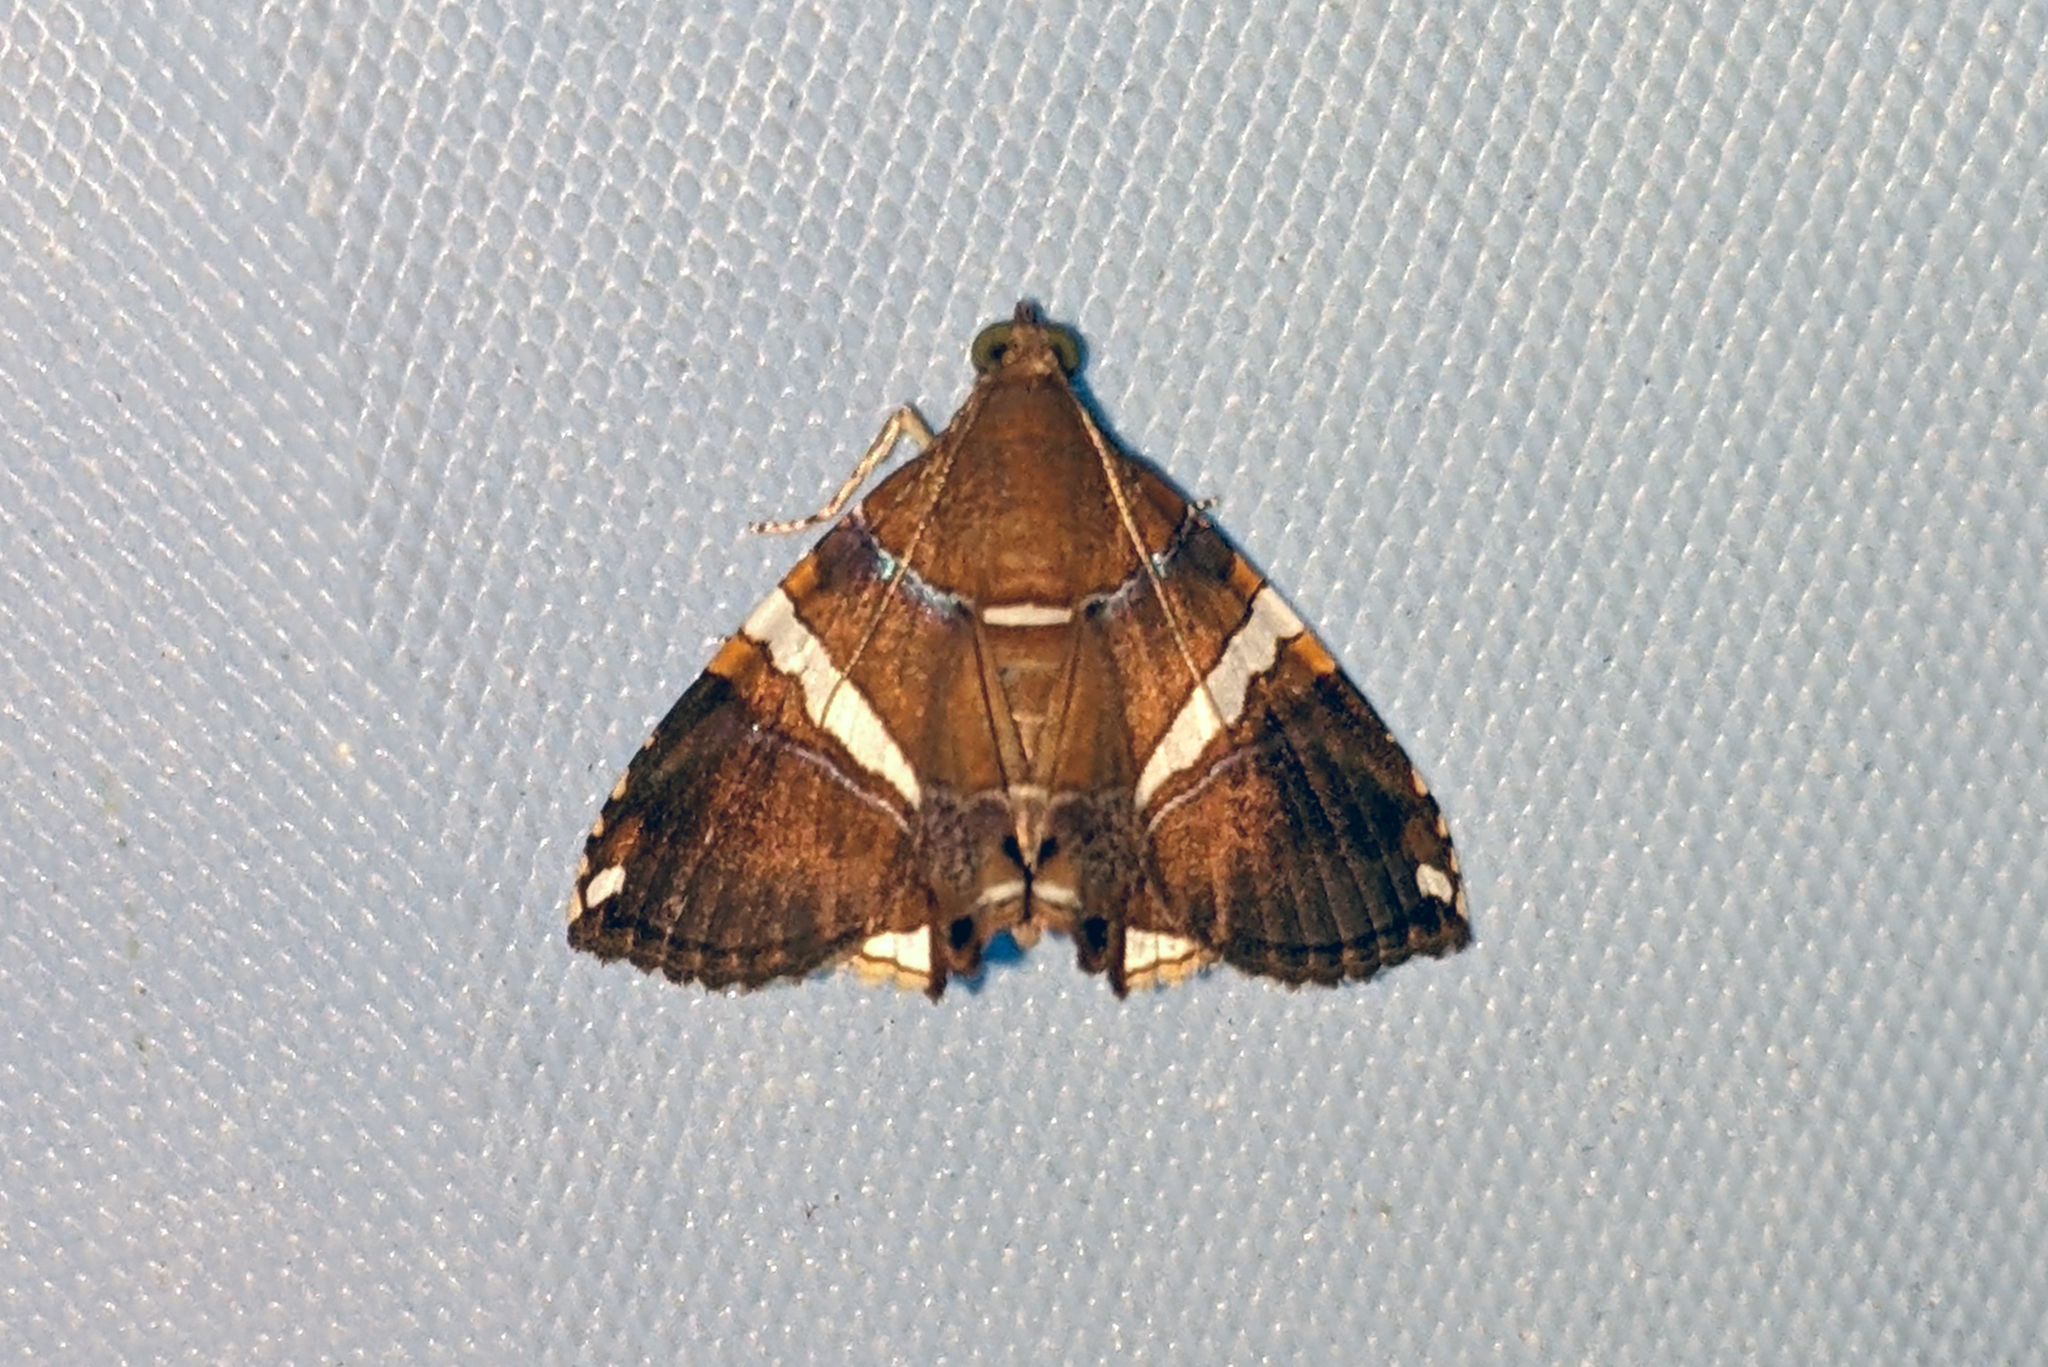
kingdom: Animalia
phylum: Arthropoda
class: Insecta
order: Lepidoptera
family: Erebidae
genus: Eulepidotis
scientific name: Eulepidotis albata
